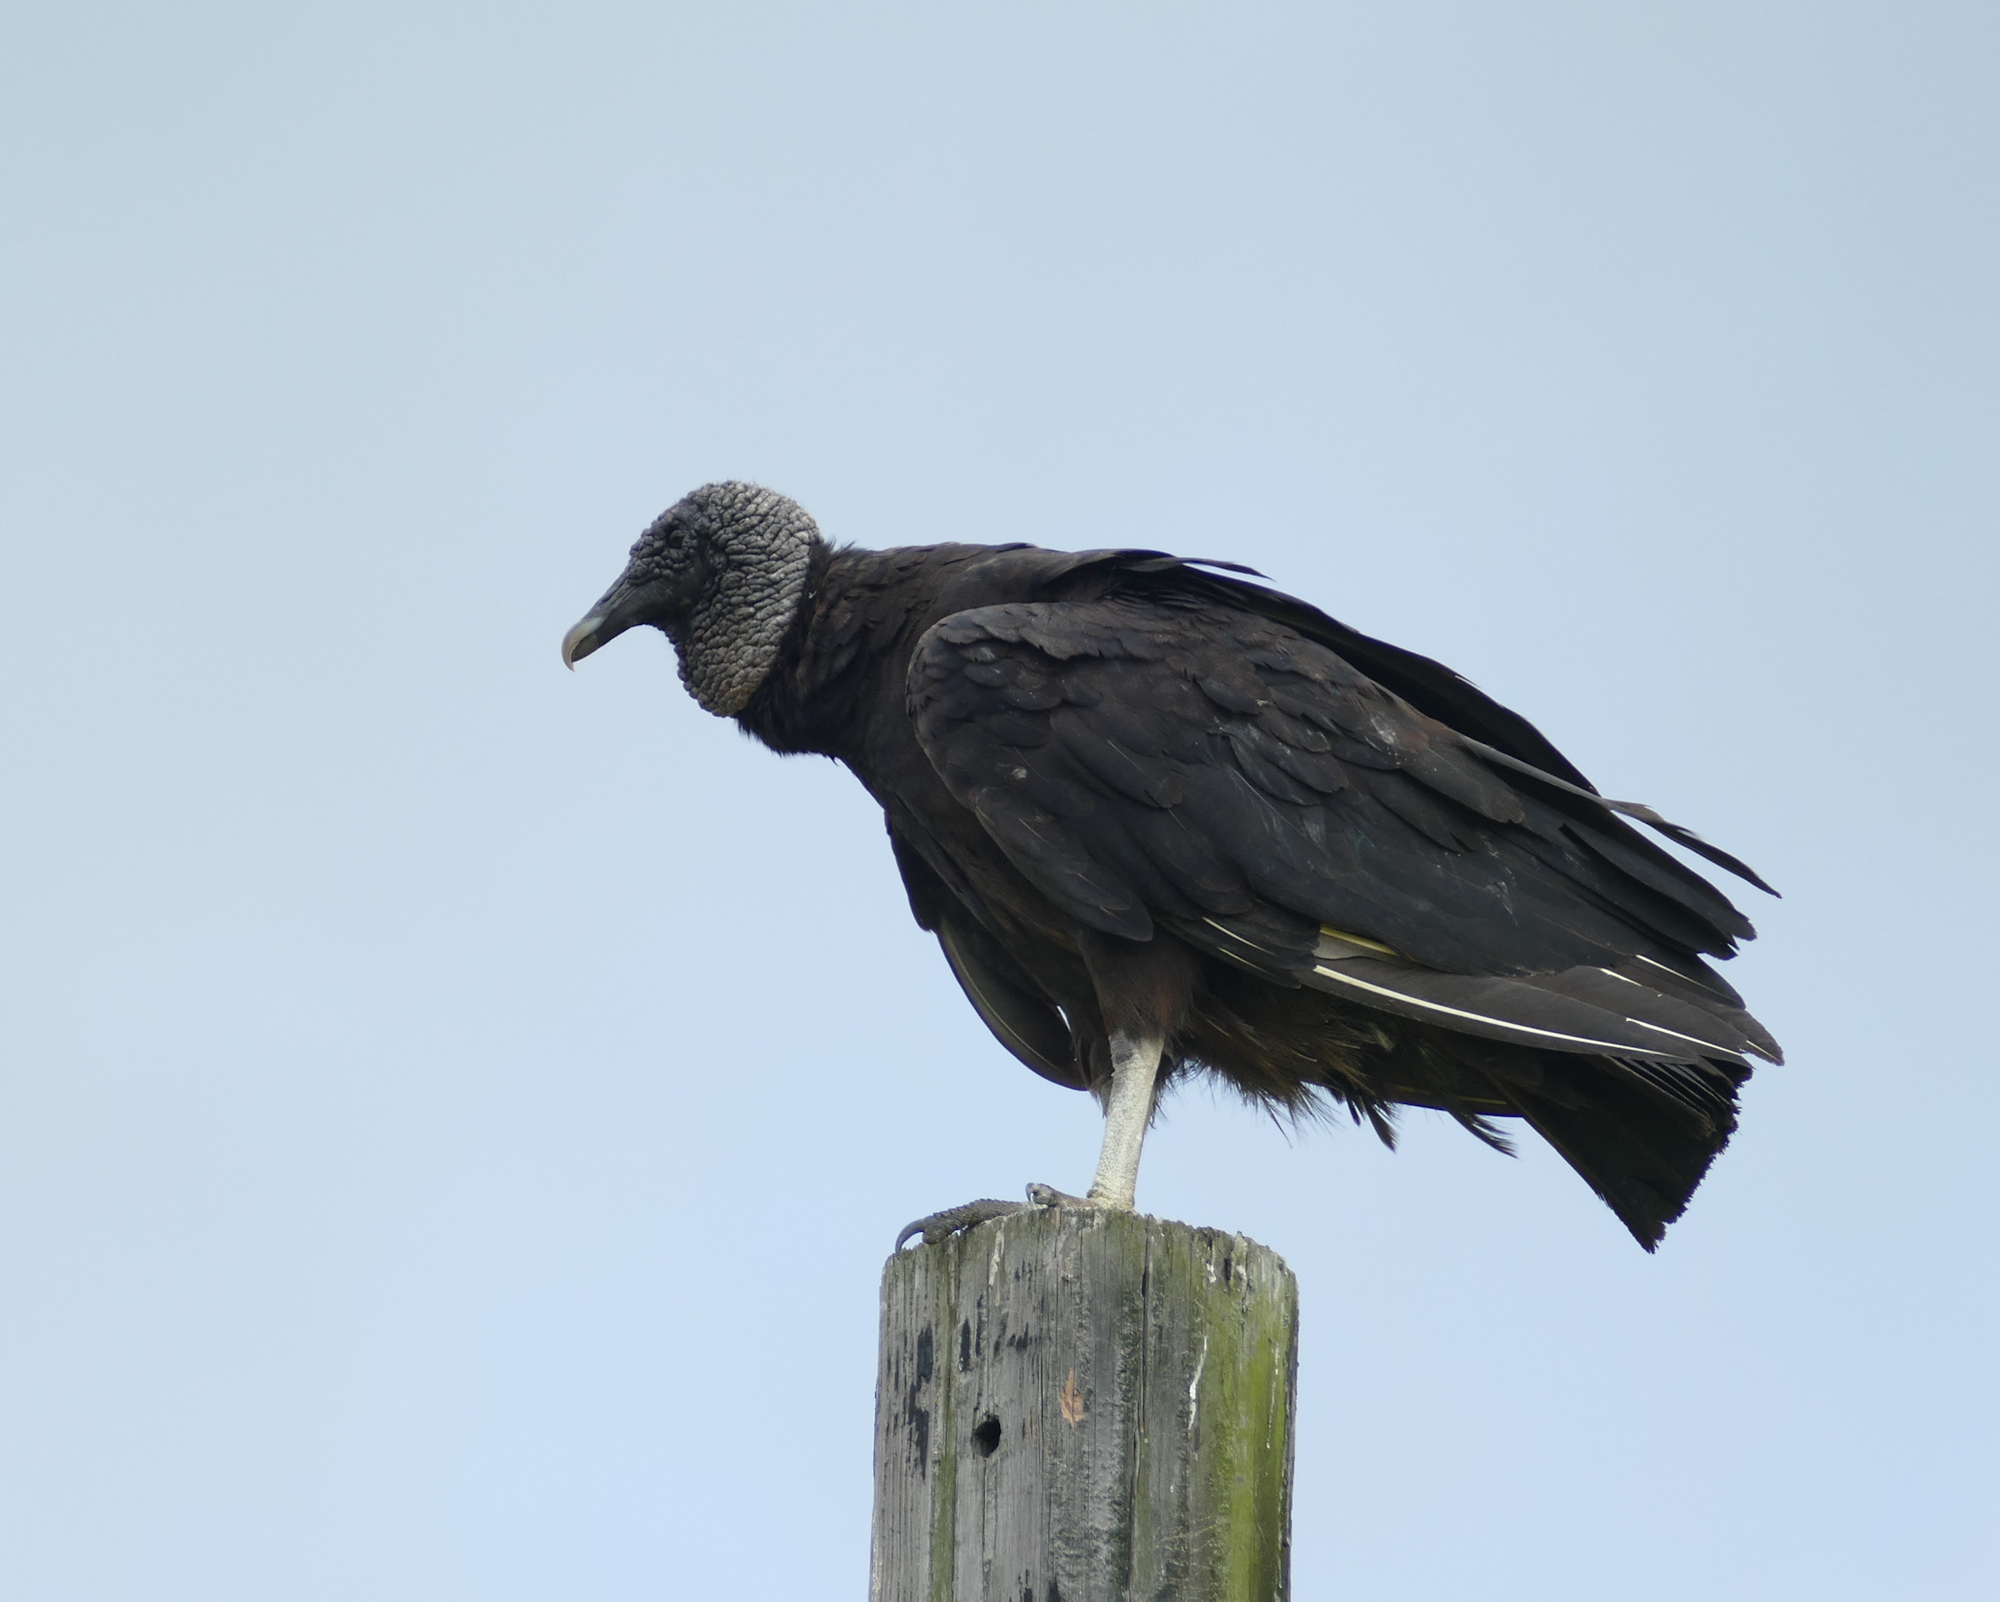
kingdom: Animalia
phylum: Chordata
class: Aves
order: Accipitriformes
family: Cathartidae
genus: Coragyps
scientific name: Coragyps atratus
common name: Black vulture
